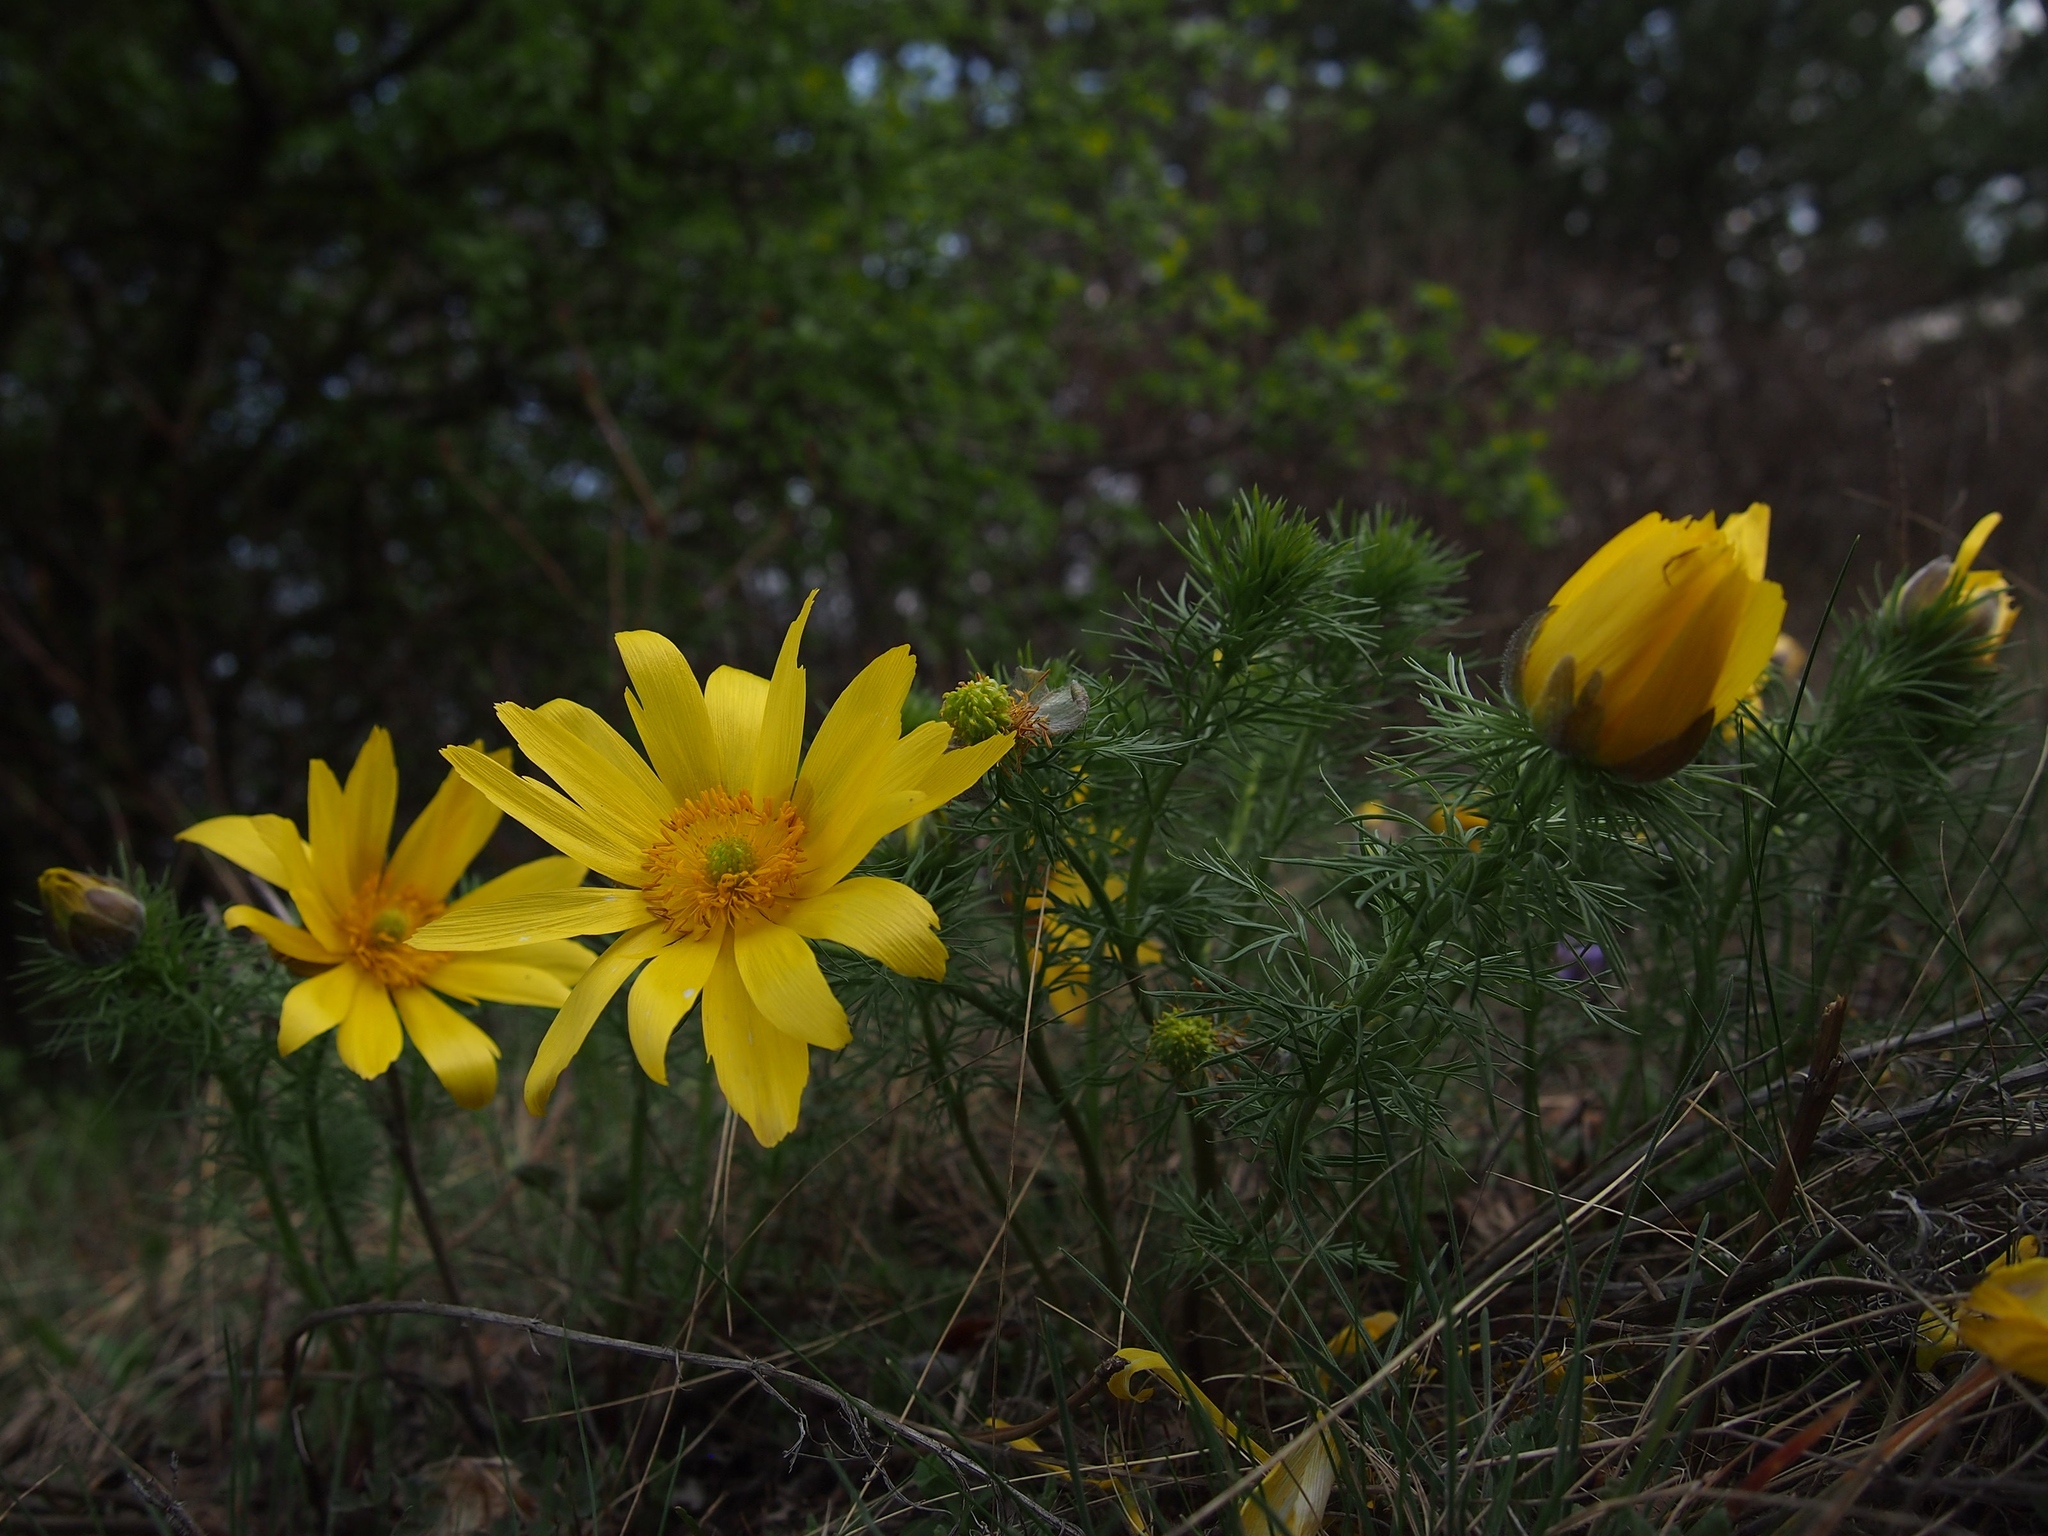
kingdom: Plantae
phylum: Tracheophyta
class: Magnoliopsida
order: Ranunculales
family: Ranunculaceae
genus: Adonis
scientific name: Adonis vernalis
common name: Yellow pheasants-eye
